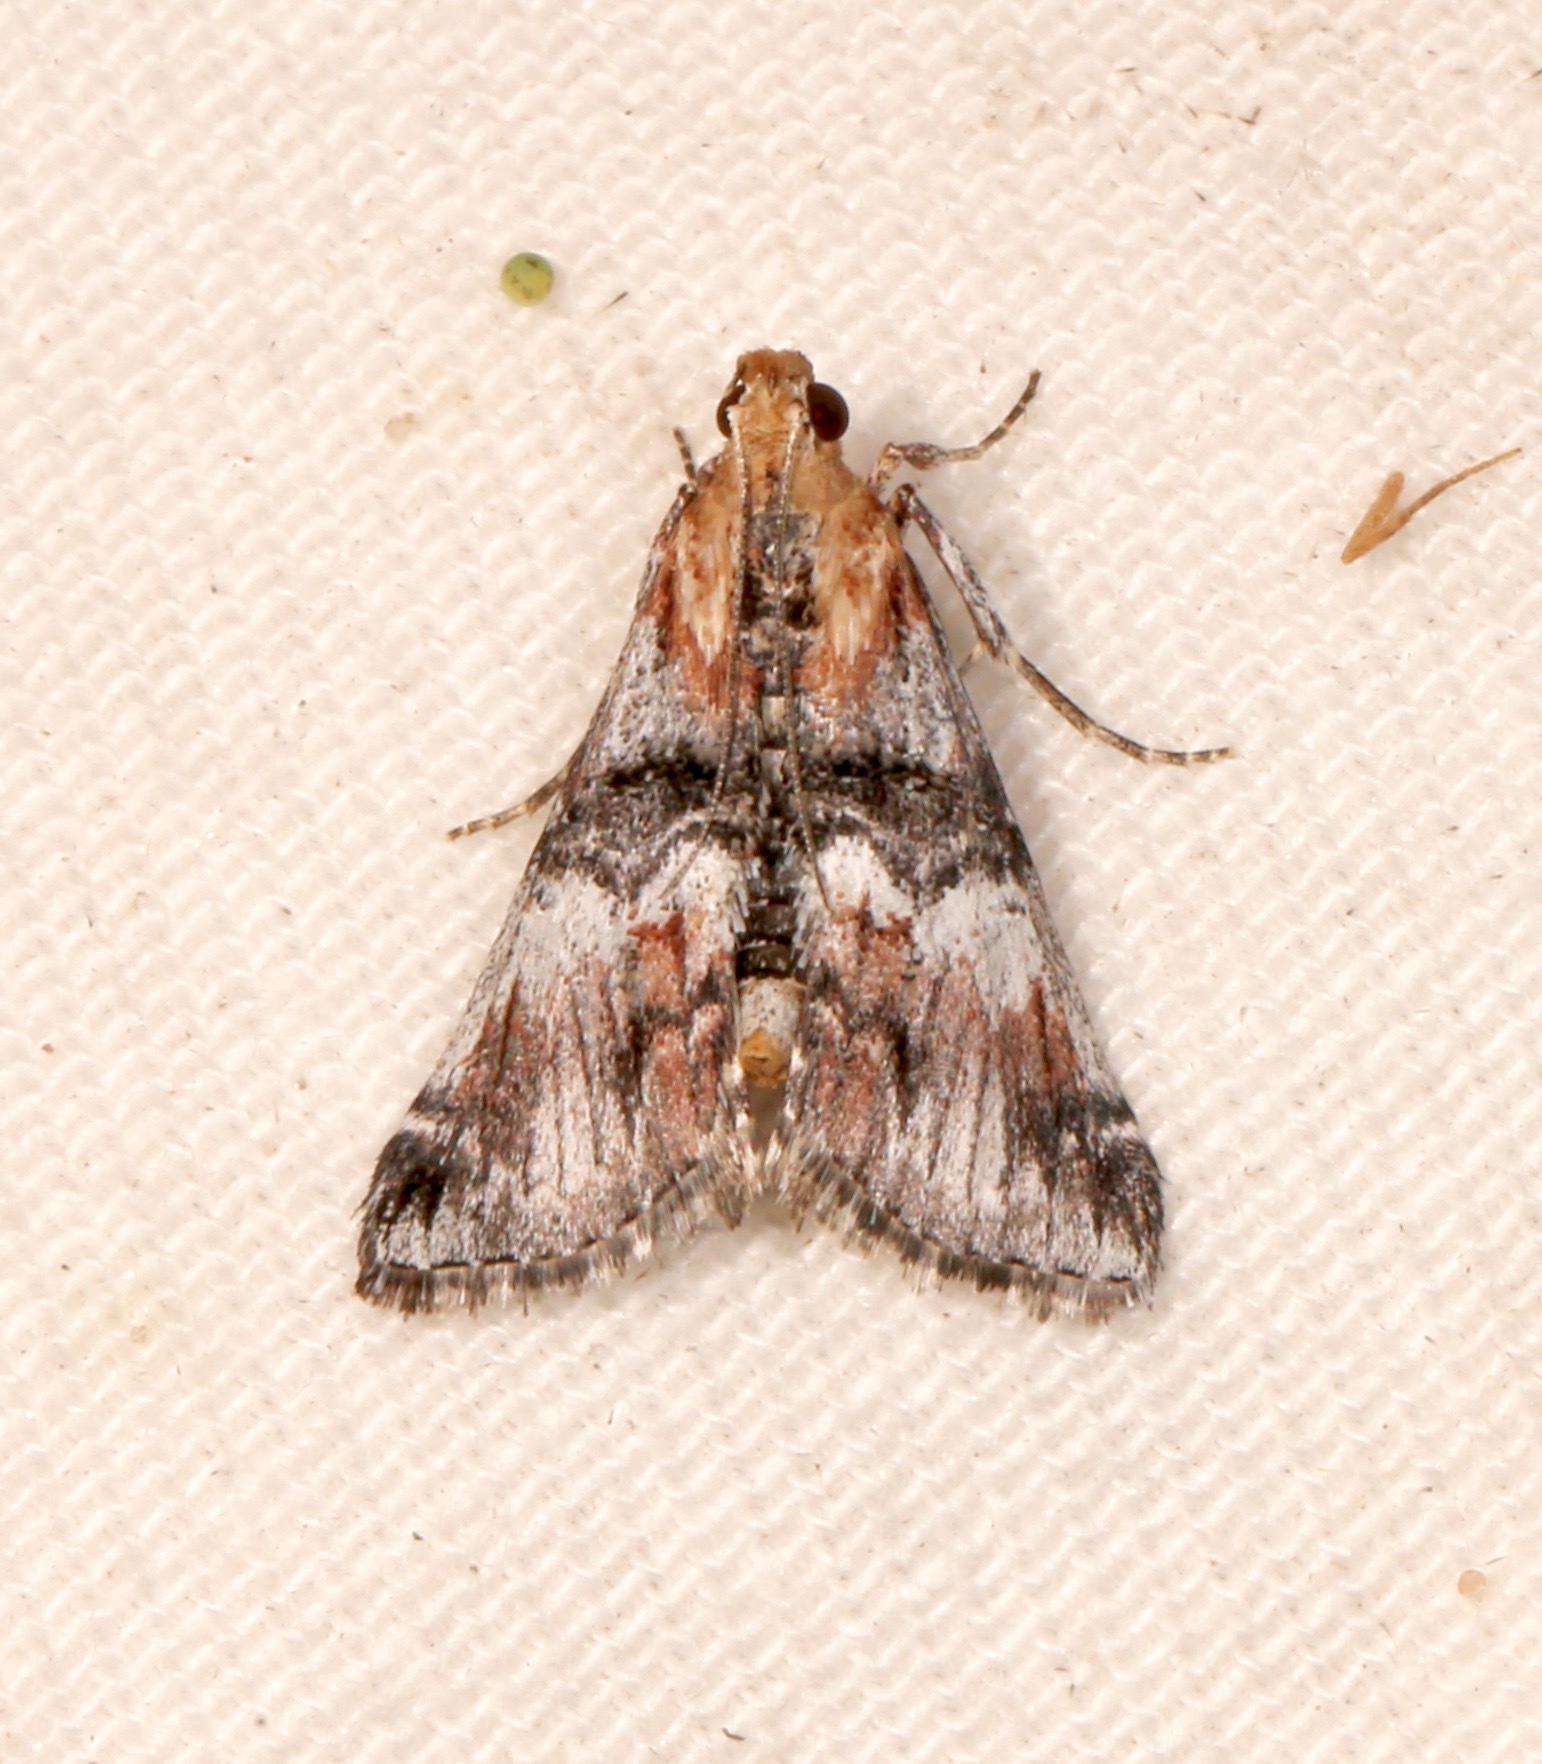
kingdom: Animalia
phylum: Arthropoda
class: Insecta
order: Lepidoptera
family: Pyralidae
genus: Toripalpus
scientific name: Toripalpus trabalis
